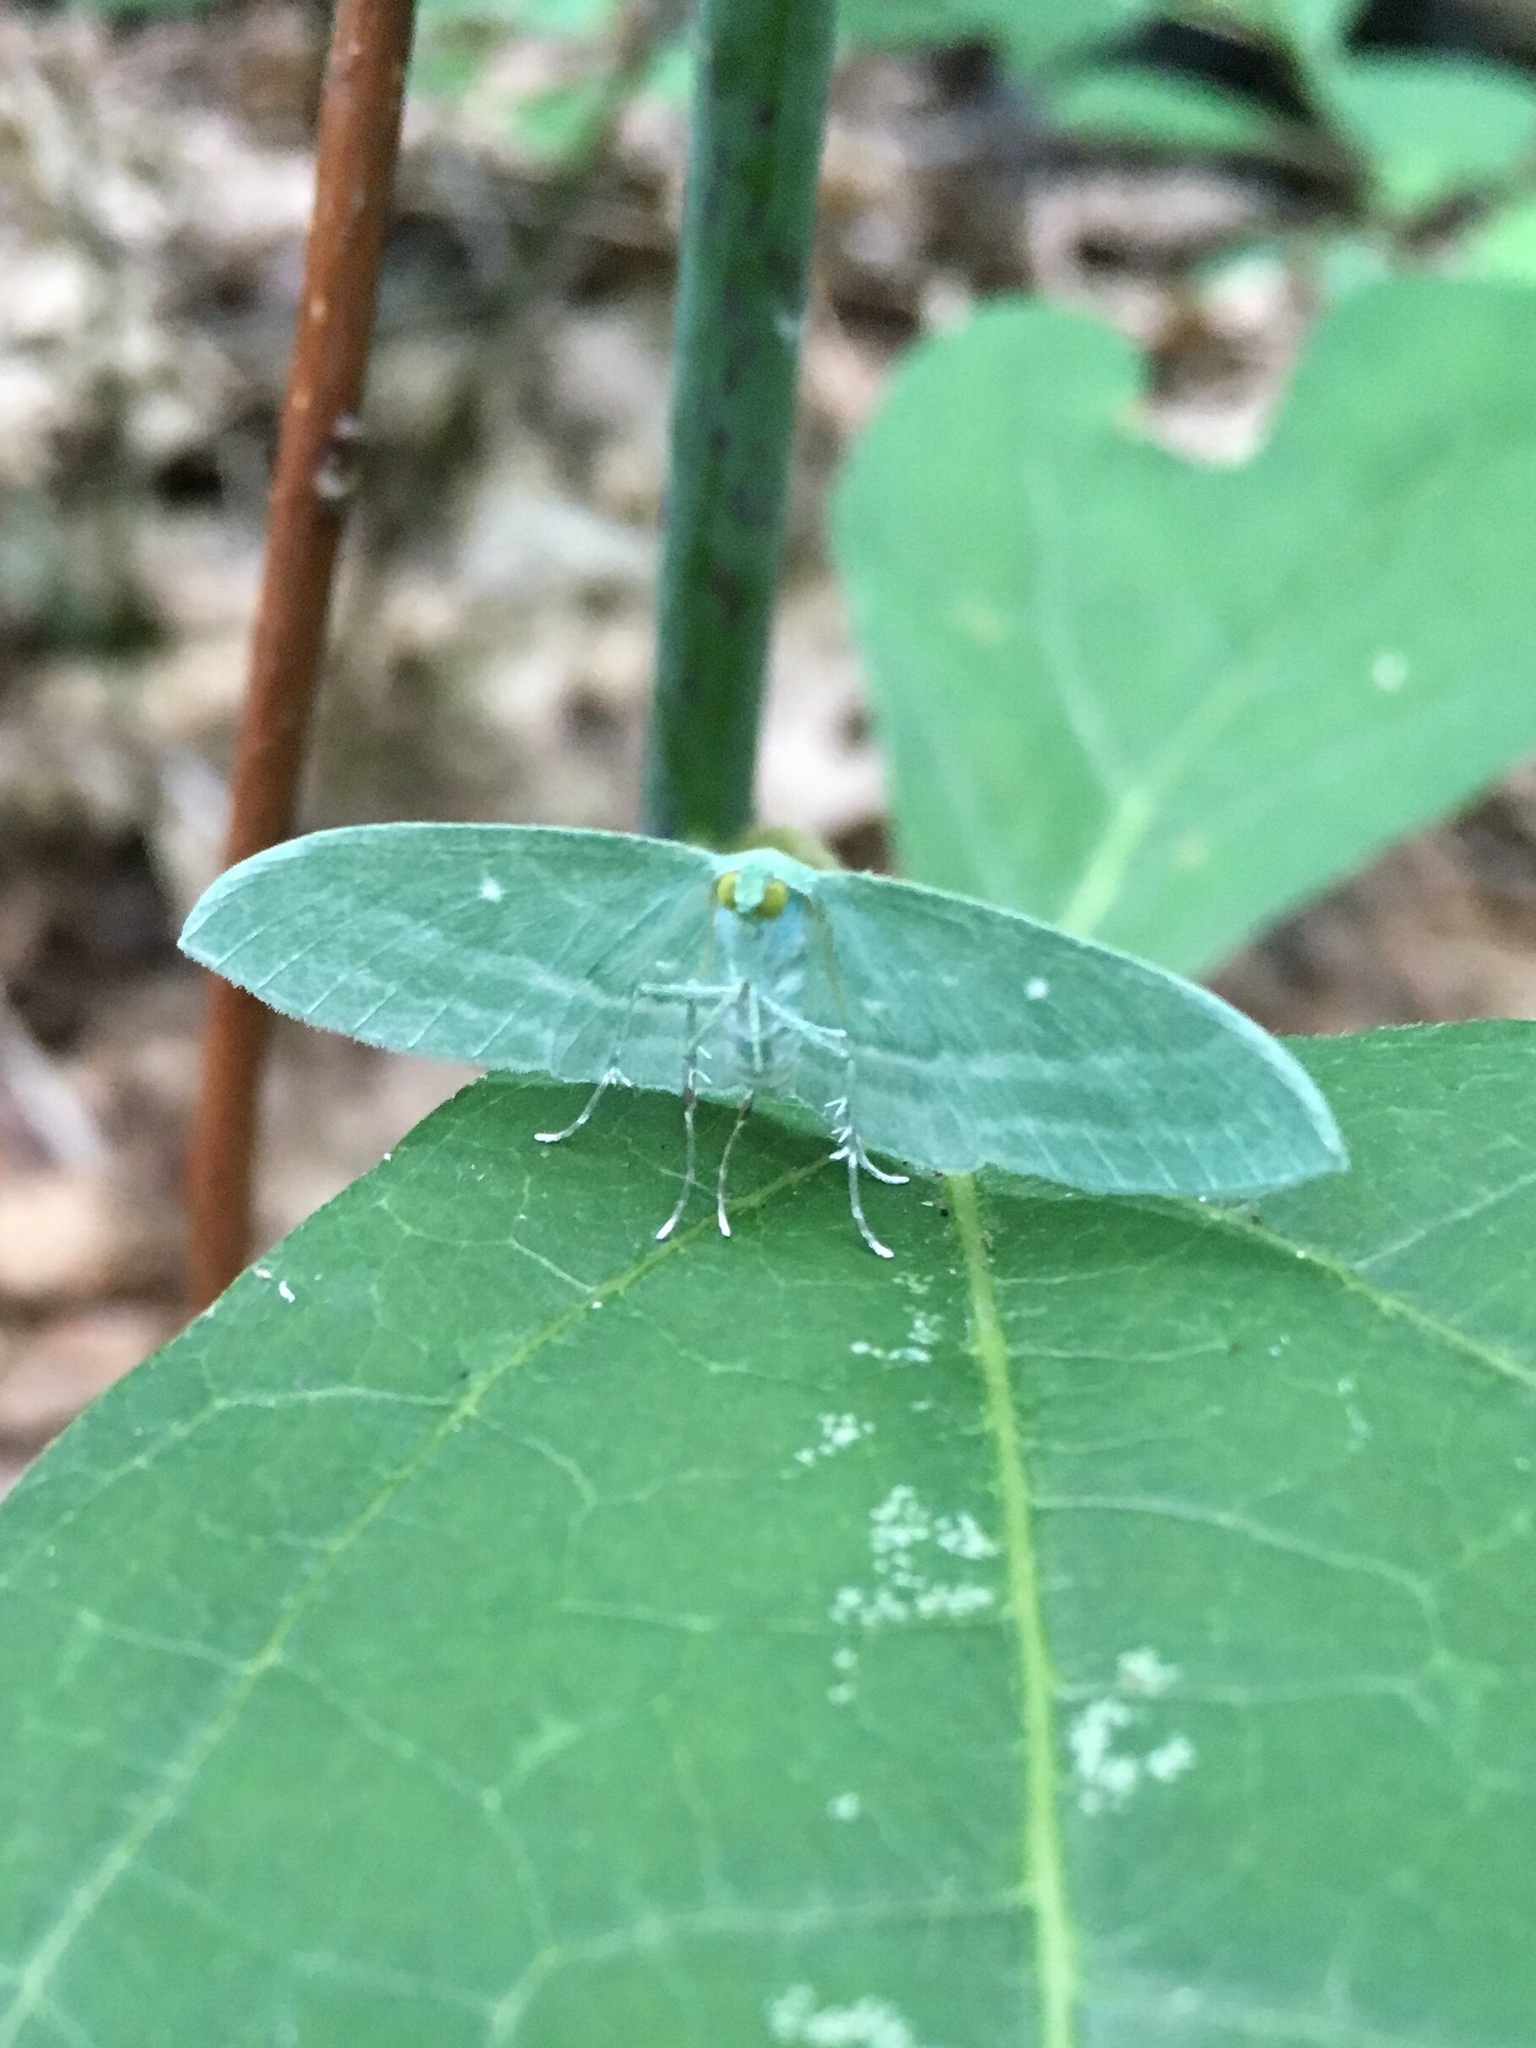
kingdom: Animalia
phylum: Arthropoda
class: Insecta
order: Lepidoptera
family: Geometridae
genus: Dyspteris
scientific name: Dyspteris abortivaria
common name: Bad-wing
